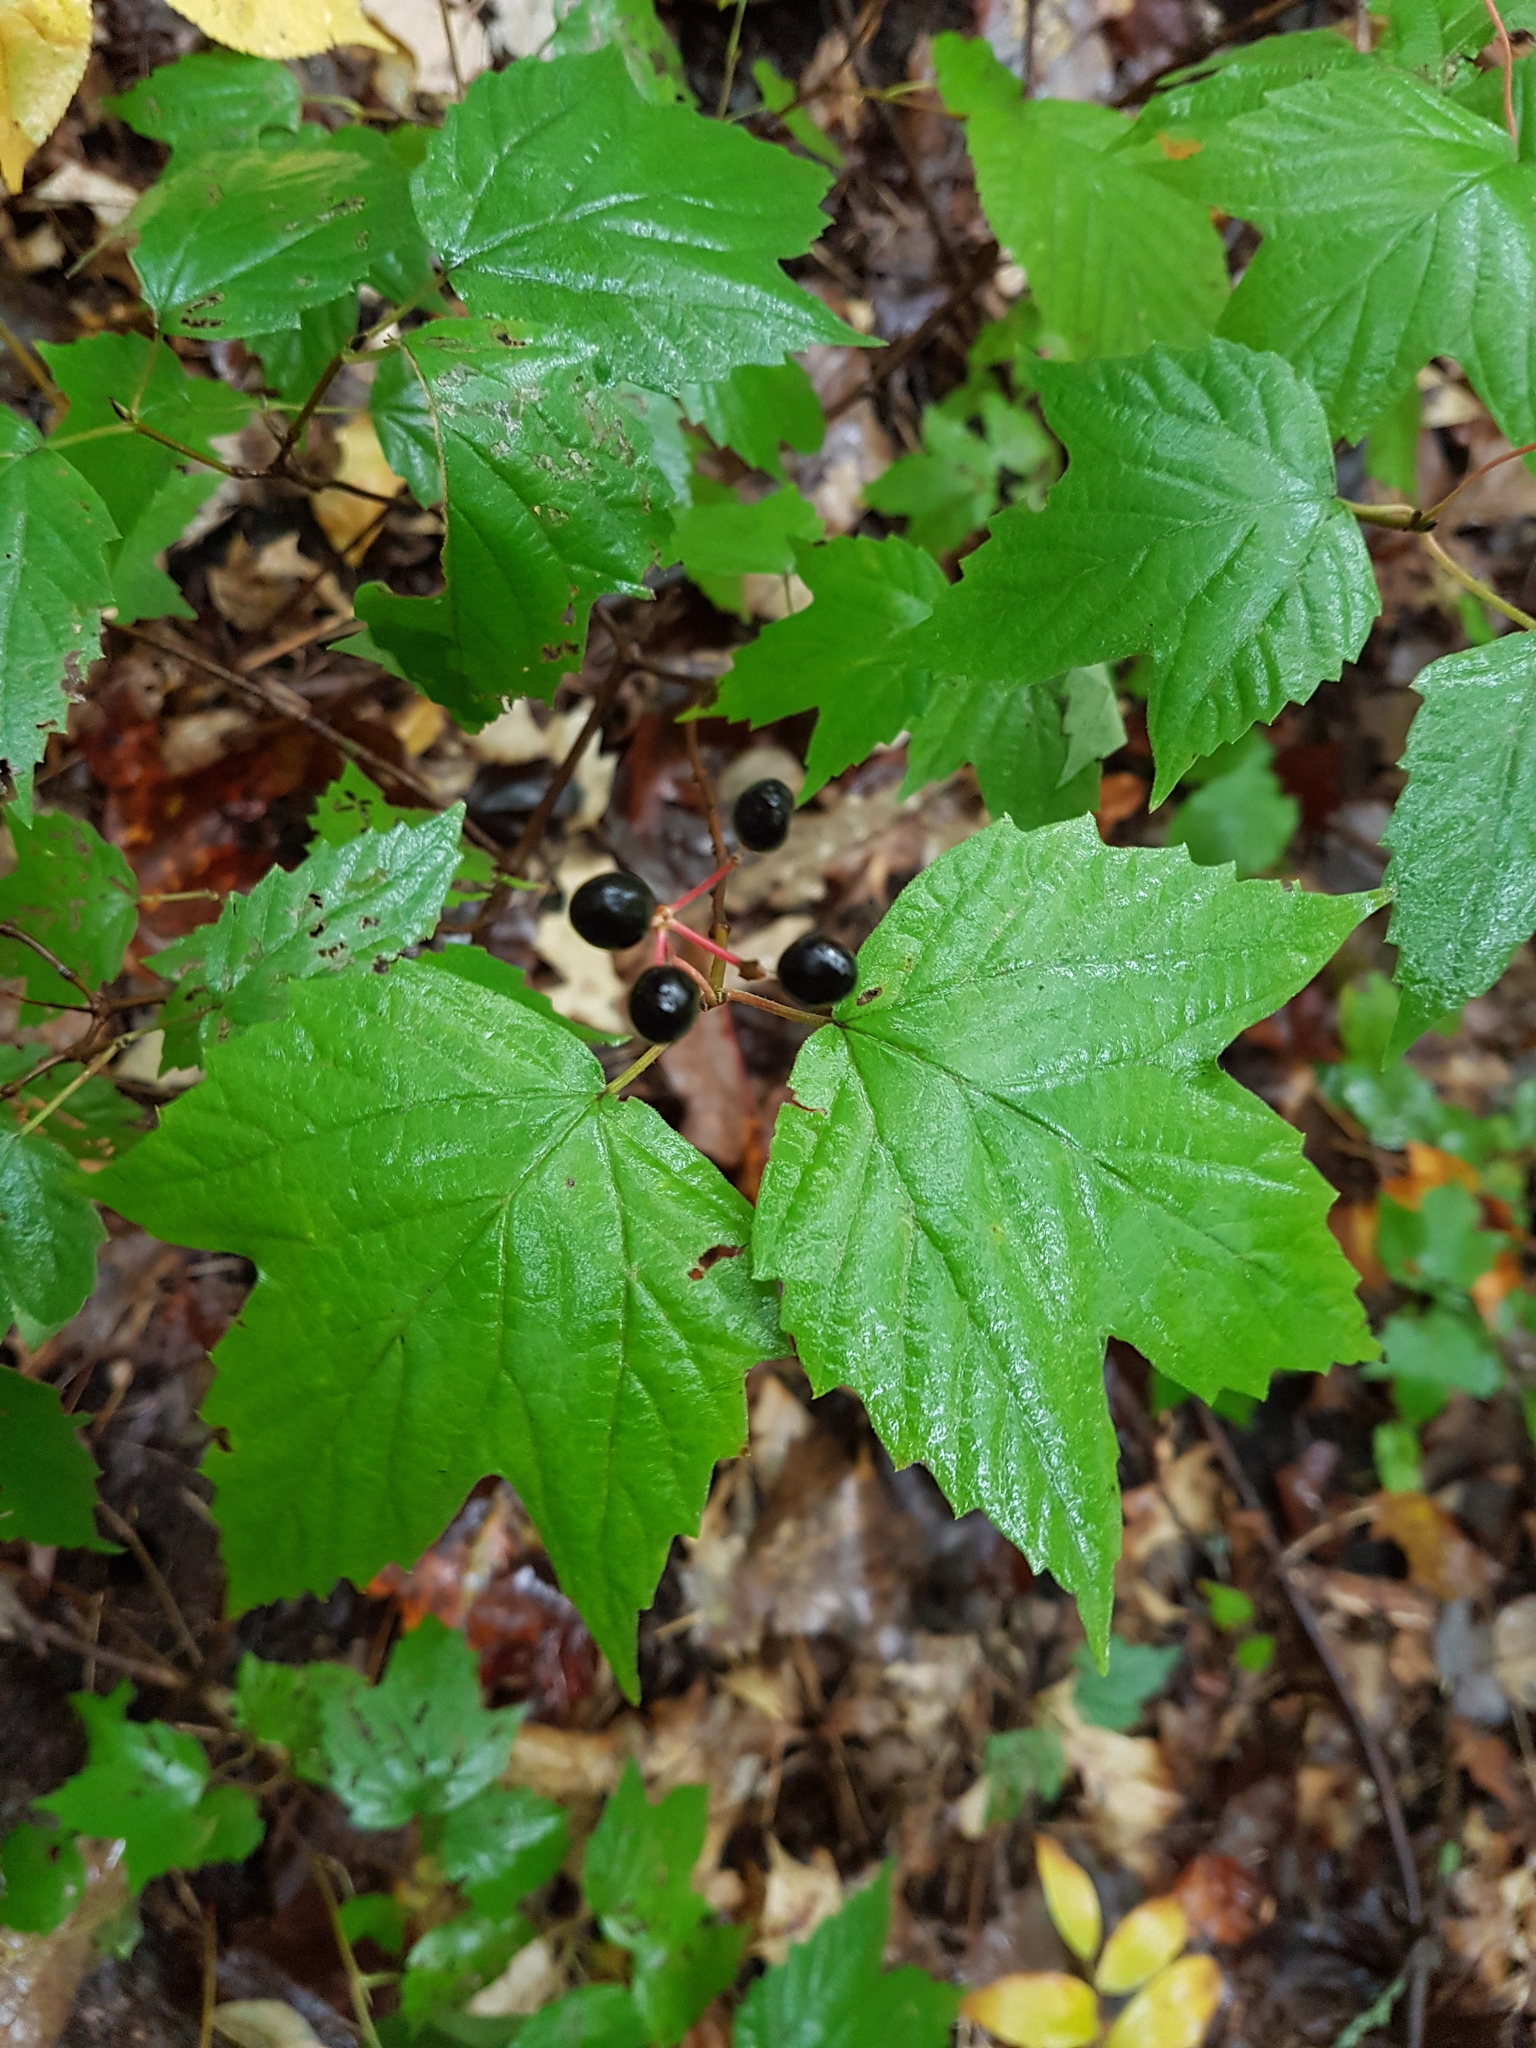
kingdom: Plantae
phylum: Tracheophyta
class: Magnoliopsida
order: Dipsacales
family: Viburnaceae
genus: Viburnum
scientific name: Viburnum acerifolium
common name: Dockmackie
